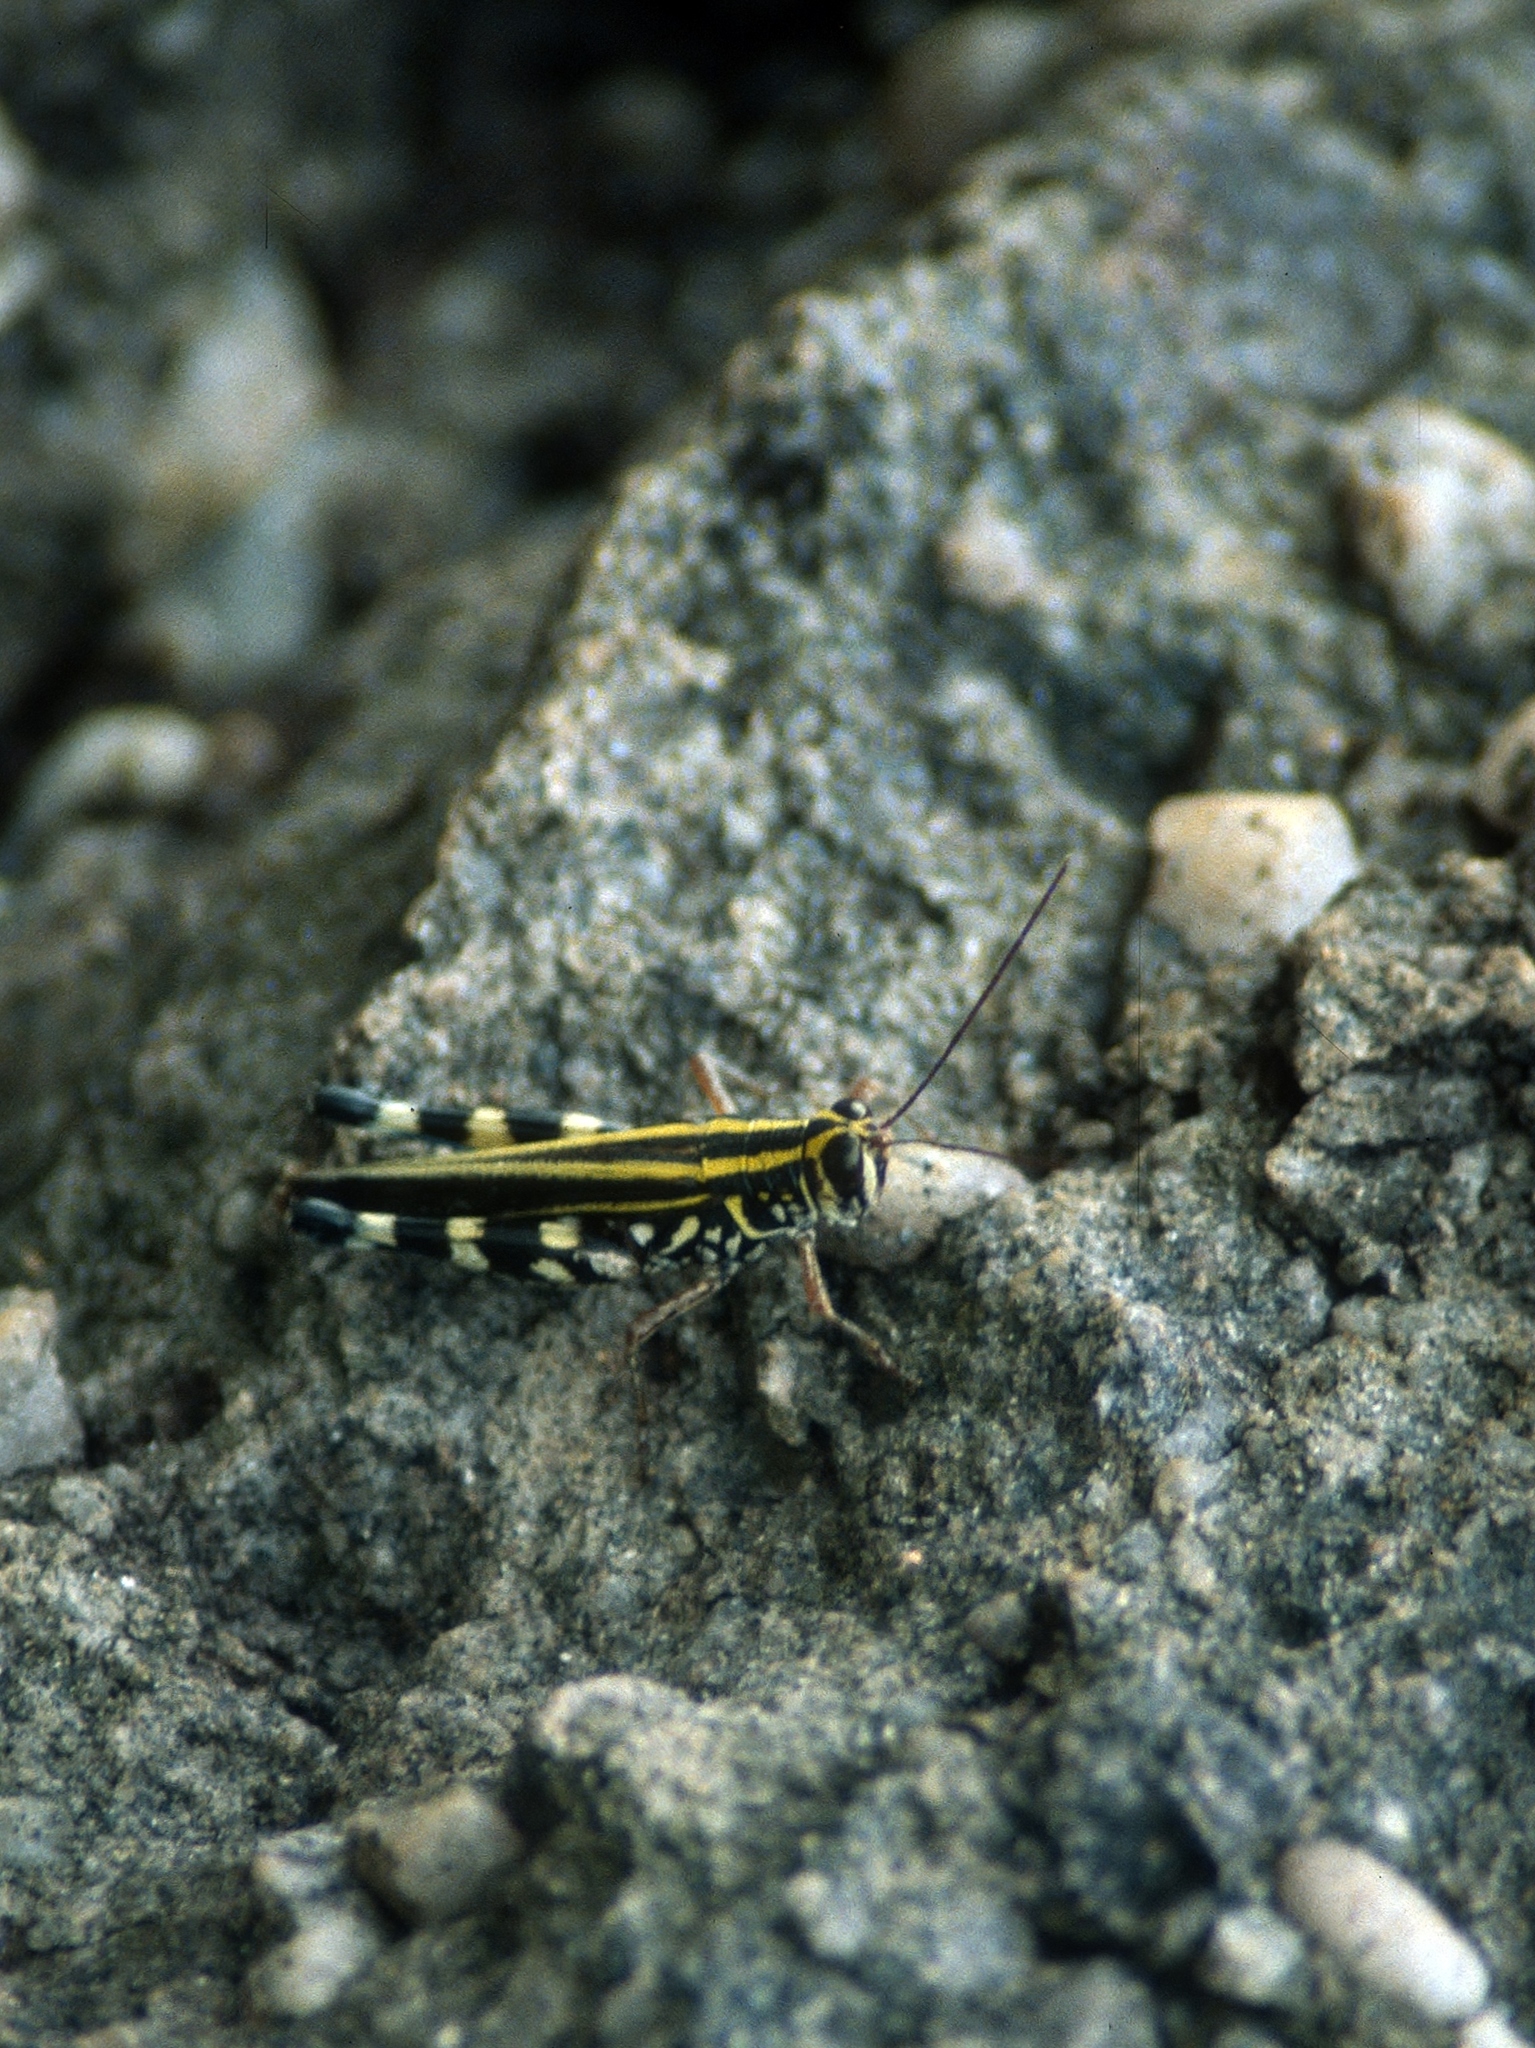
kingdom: Animalia
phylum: Arthropoda
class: Insecta
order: Orthoptera
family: Acrididae
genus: Zebratula
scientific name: Zebratula flavonigra
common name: Zebra grasshopper
